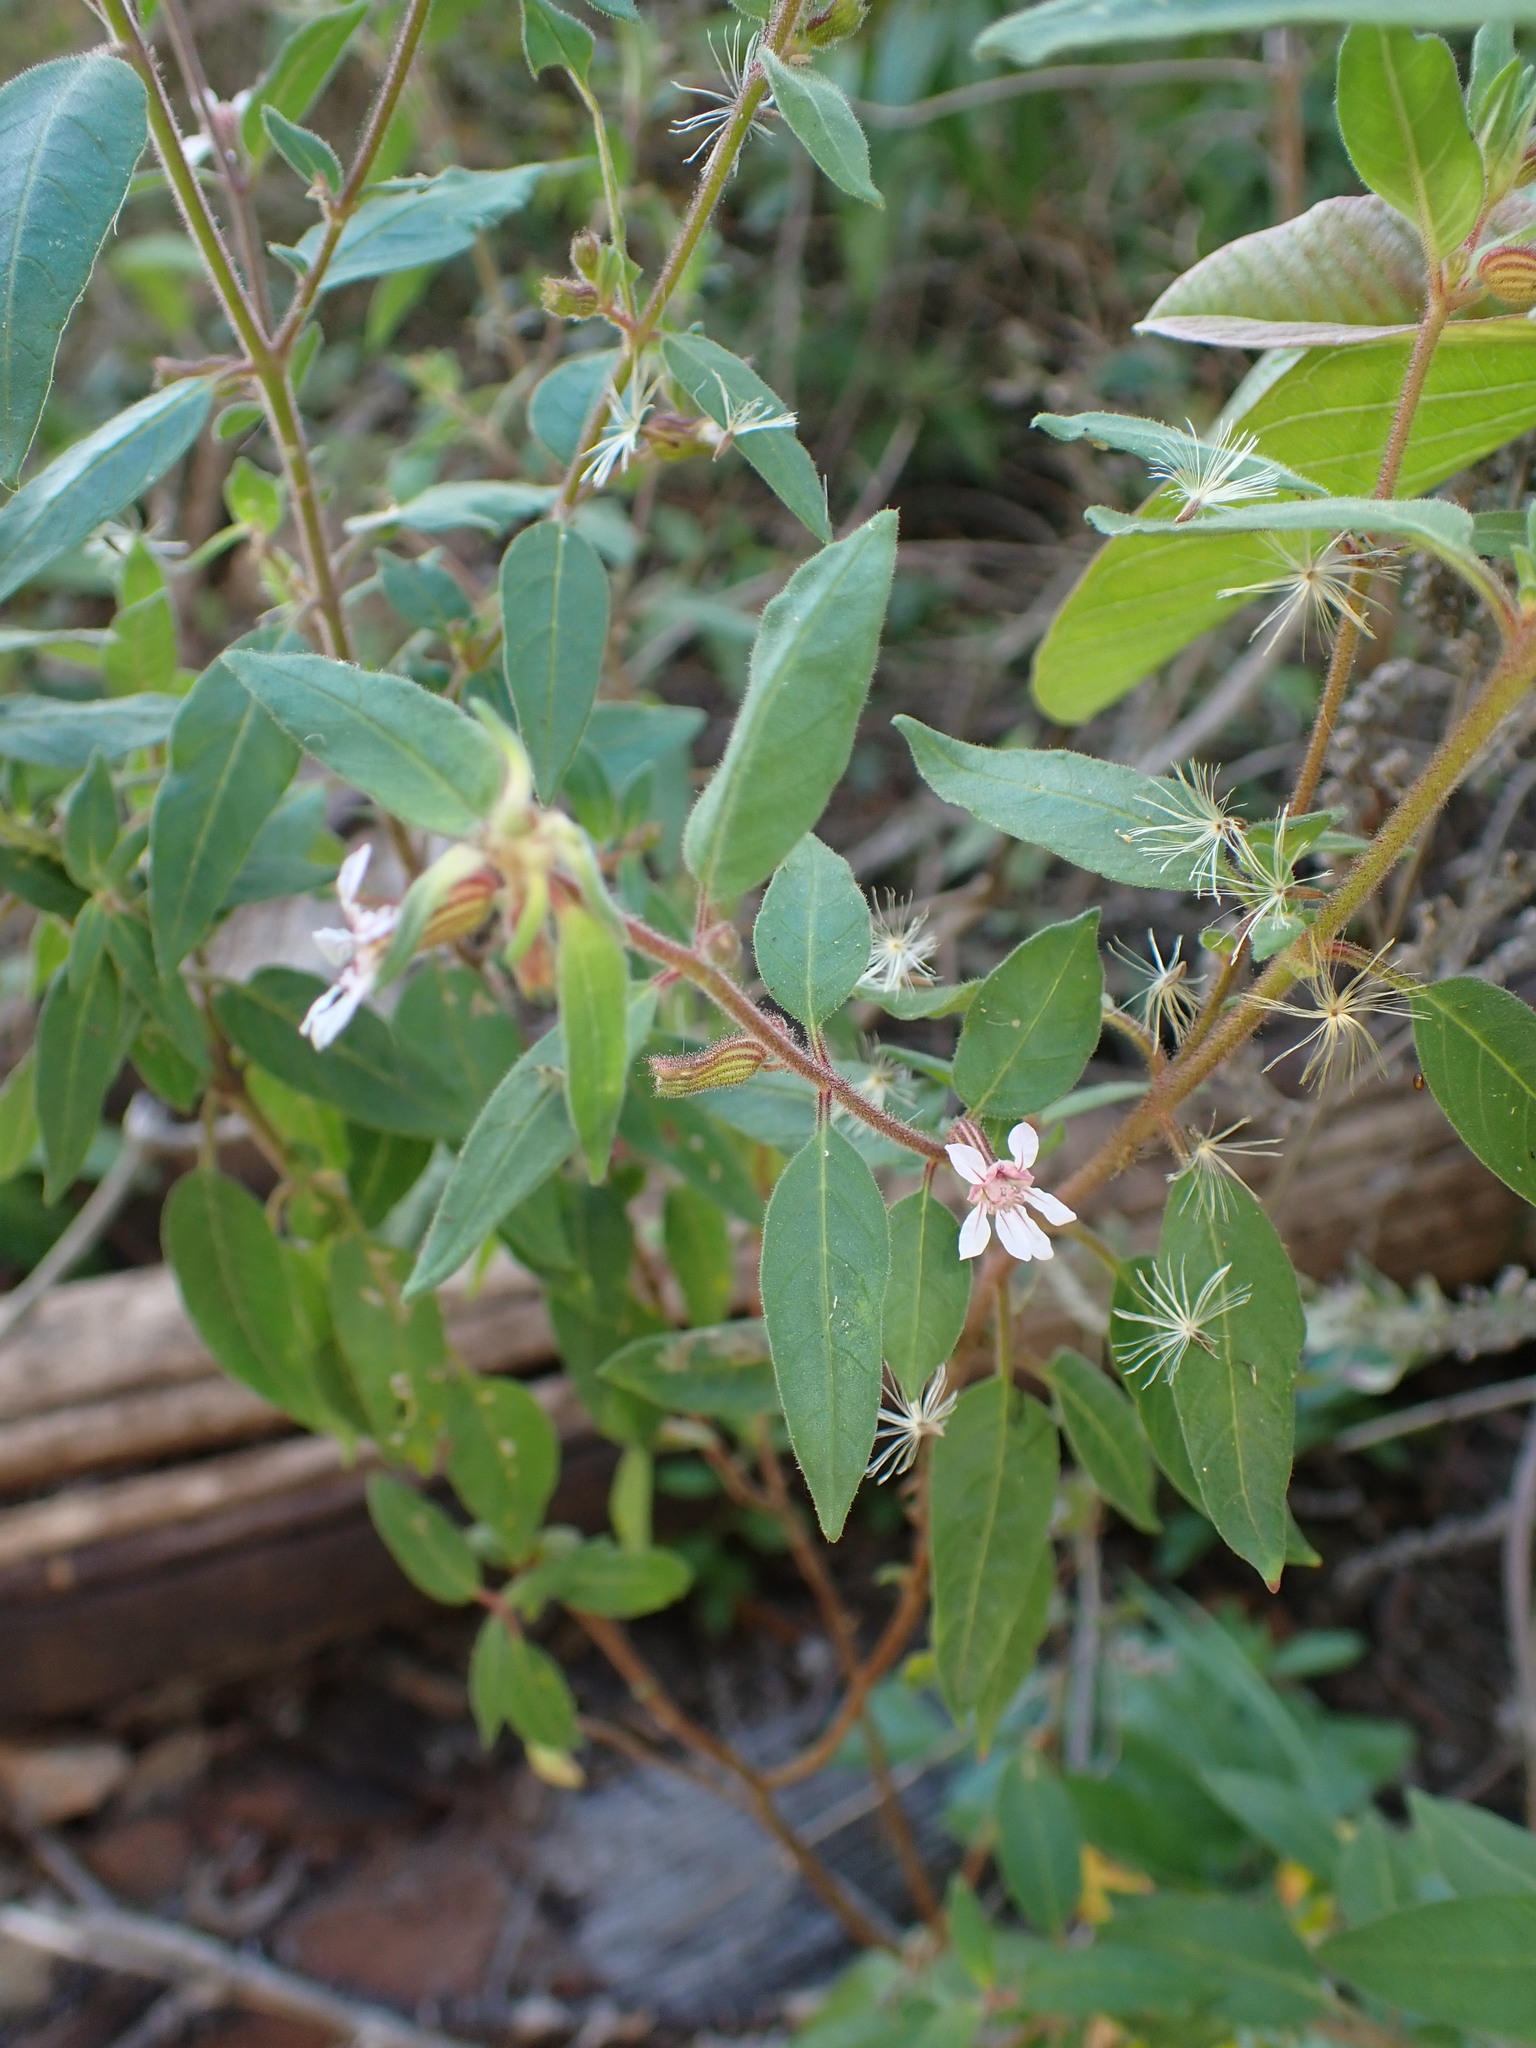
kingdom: Plantae
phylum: Tracheophyta
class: Magnoliopsida
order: Myrtales
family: Lythraceae
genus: Cuphea
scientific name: Cuphea lutescens
